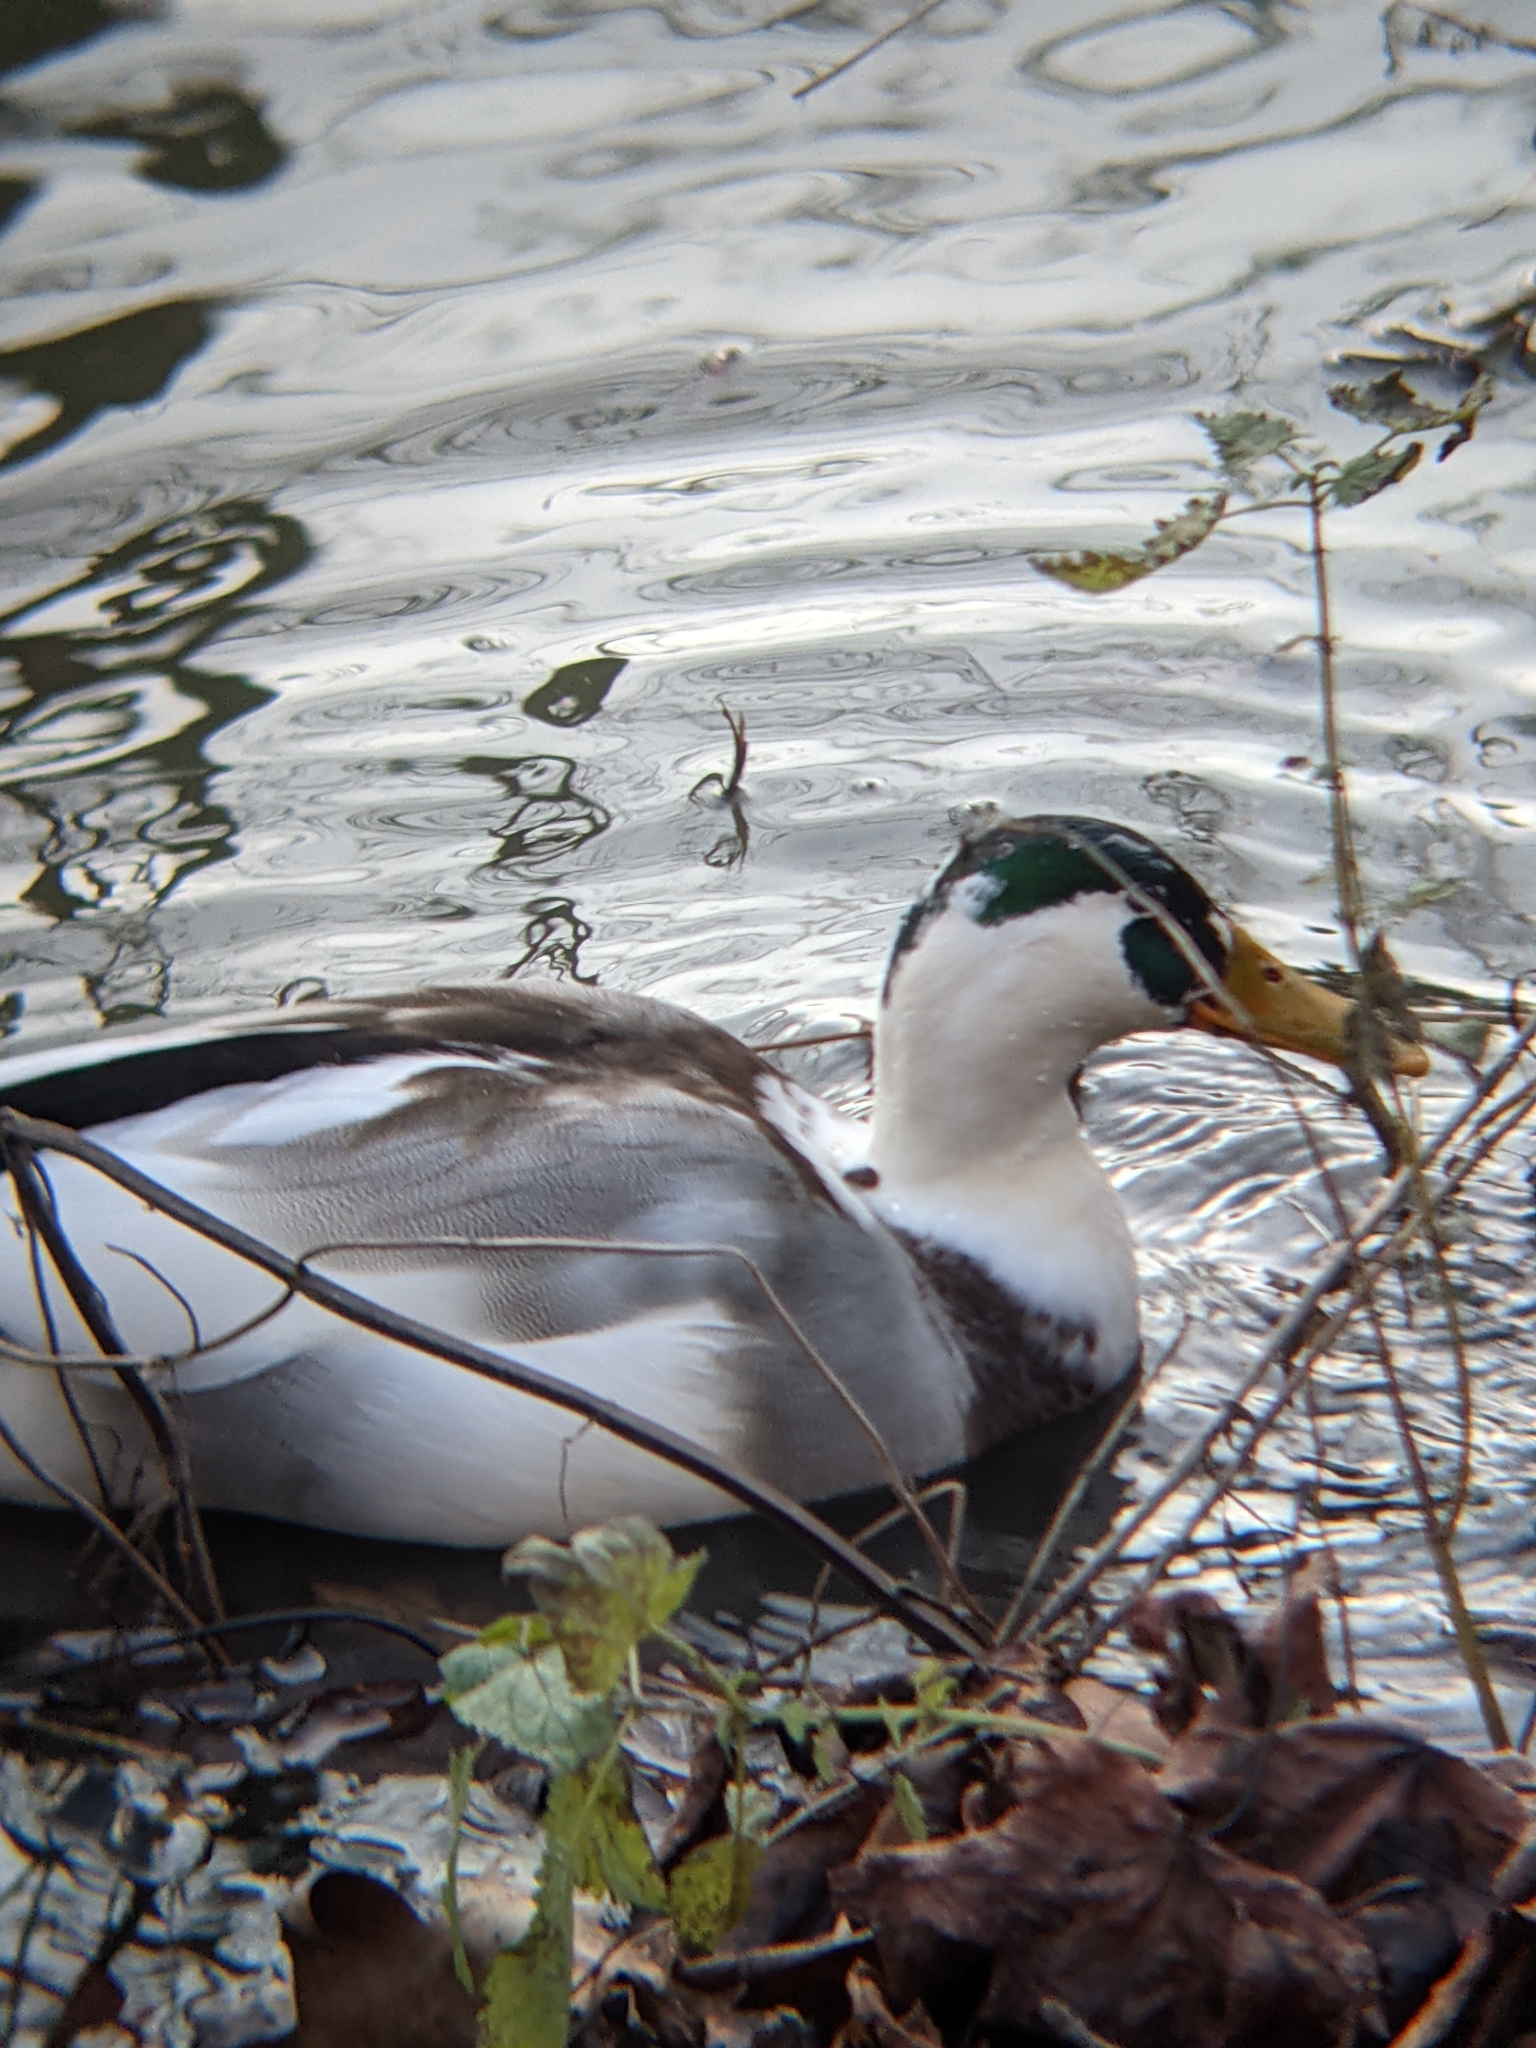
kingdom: Animalia
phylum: Chordata
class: Aves
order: Anseriformes
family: Anatidae
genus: Anas
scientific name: Anas platyrhynchos
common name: Mallard
